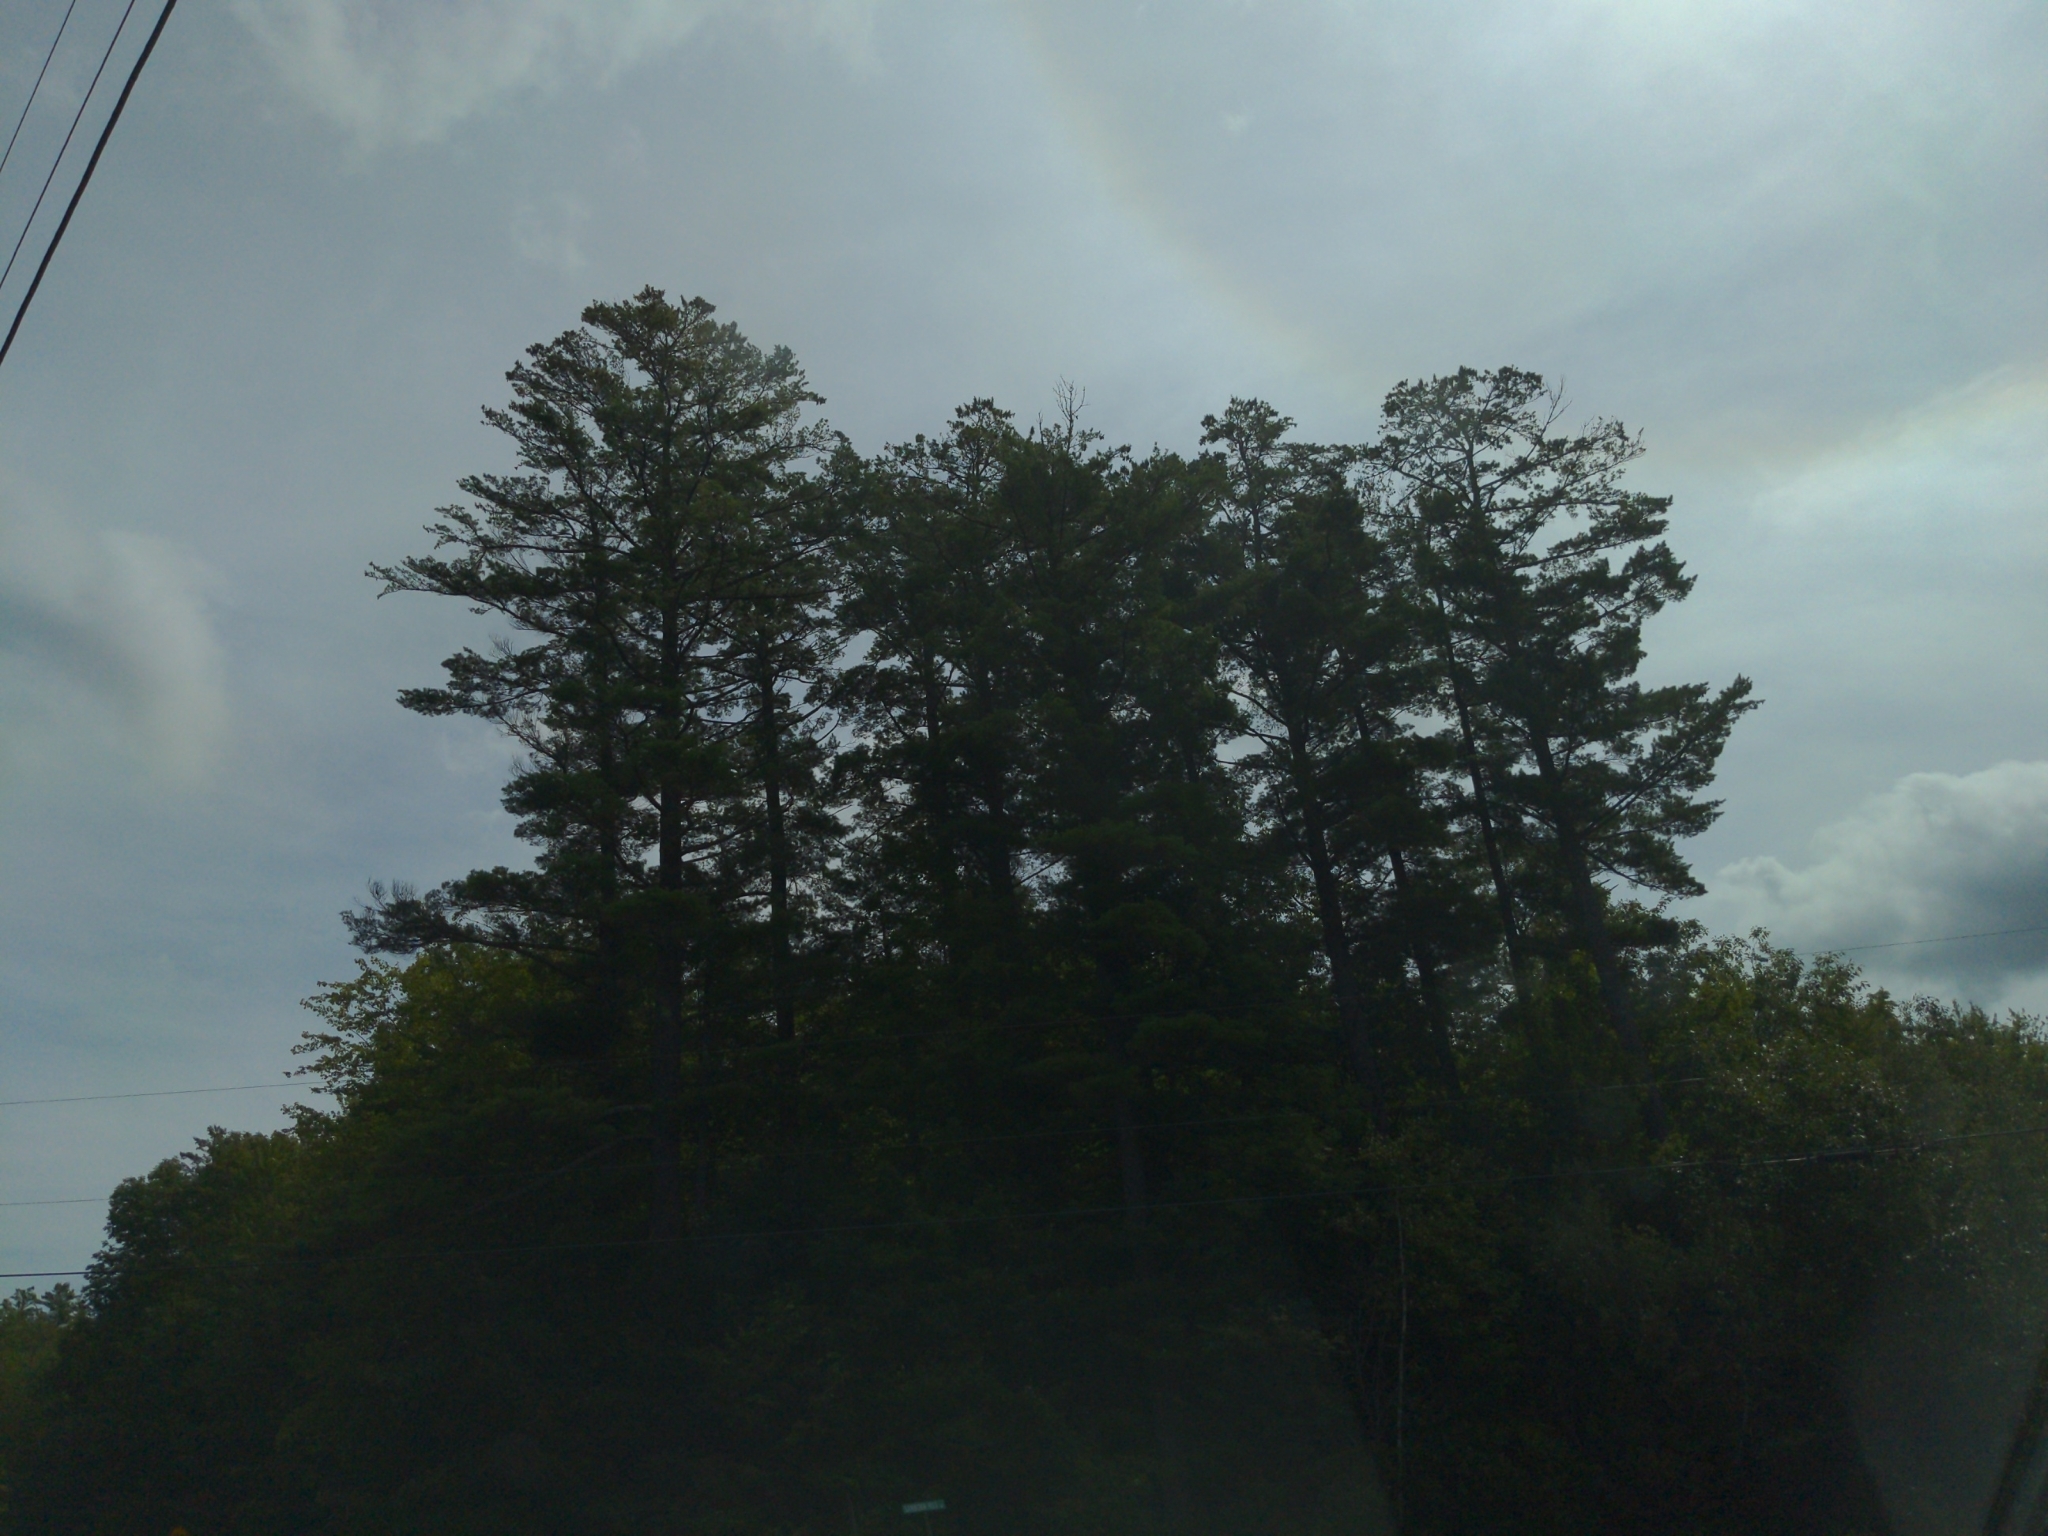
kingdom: Plantae
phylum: Tracheophyta
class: Pinopsida
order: Pinales
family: Pinaceae
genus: Pinus
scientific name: Pinus strobus
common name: Weymouth pine
